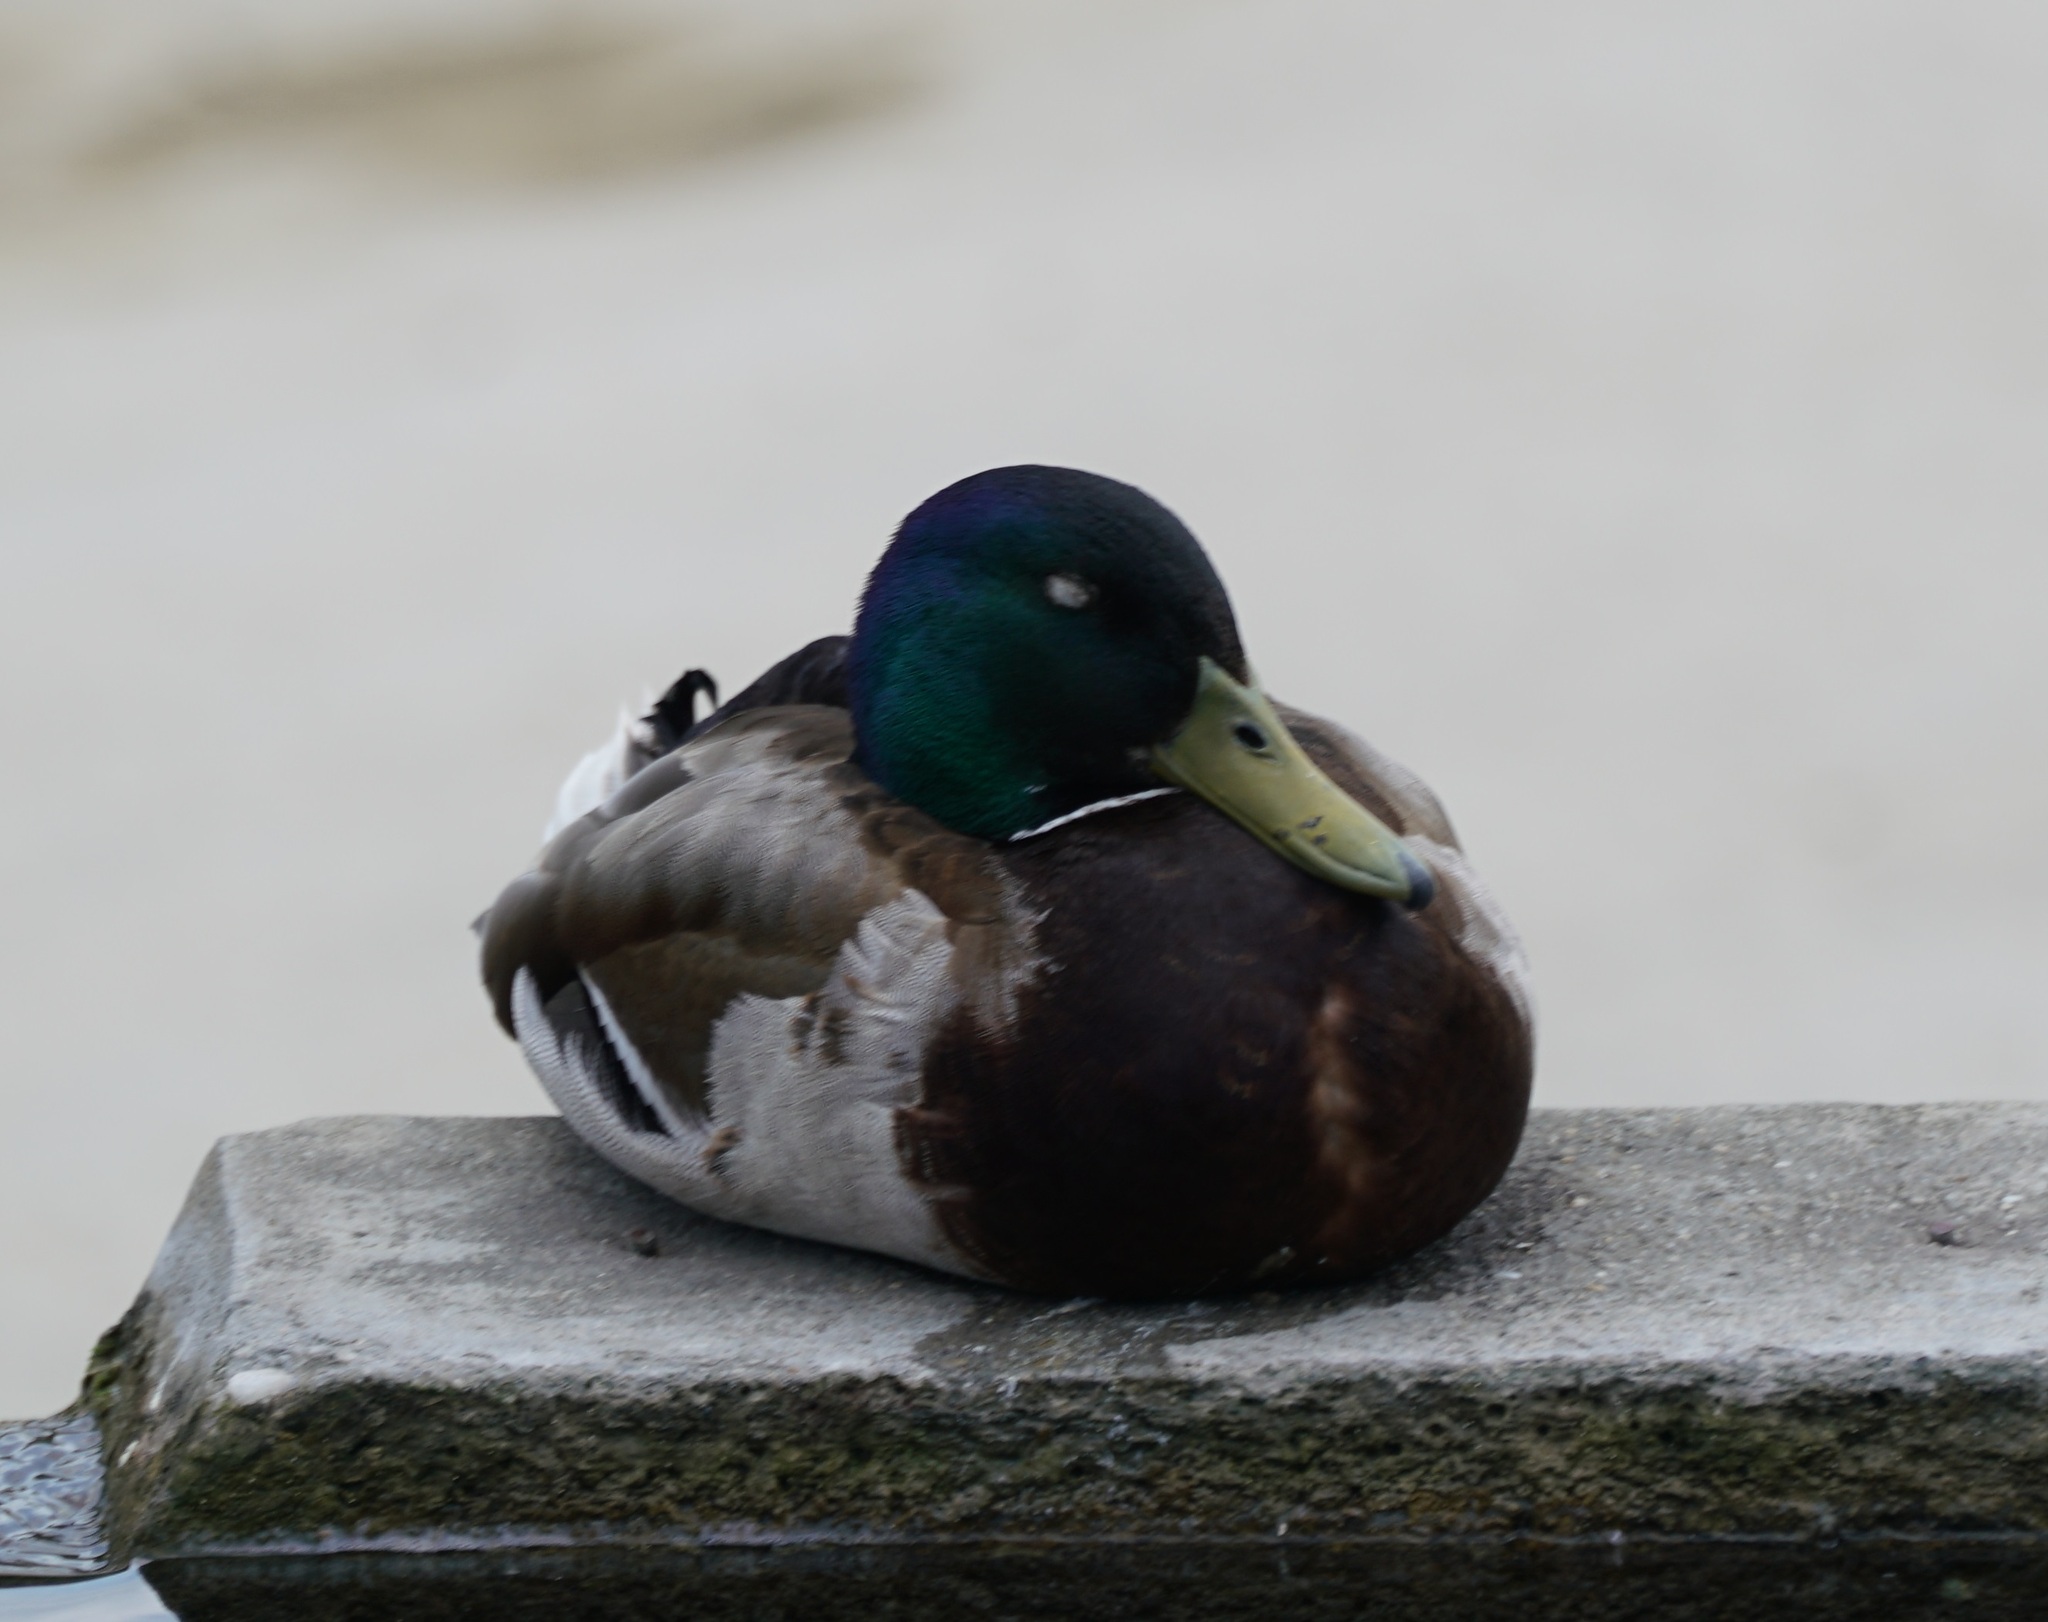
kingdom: Animalia
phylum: Chordata
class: Aves
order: Anseriformes
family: Anatidae
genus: Anas
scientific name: Anas platyrhynchos
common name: Mallard
